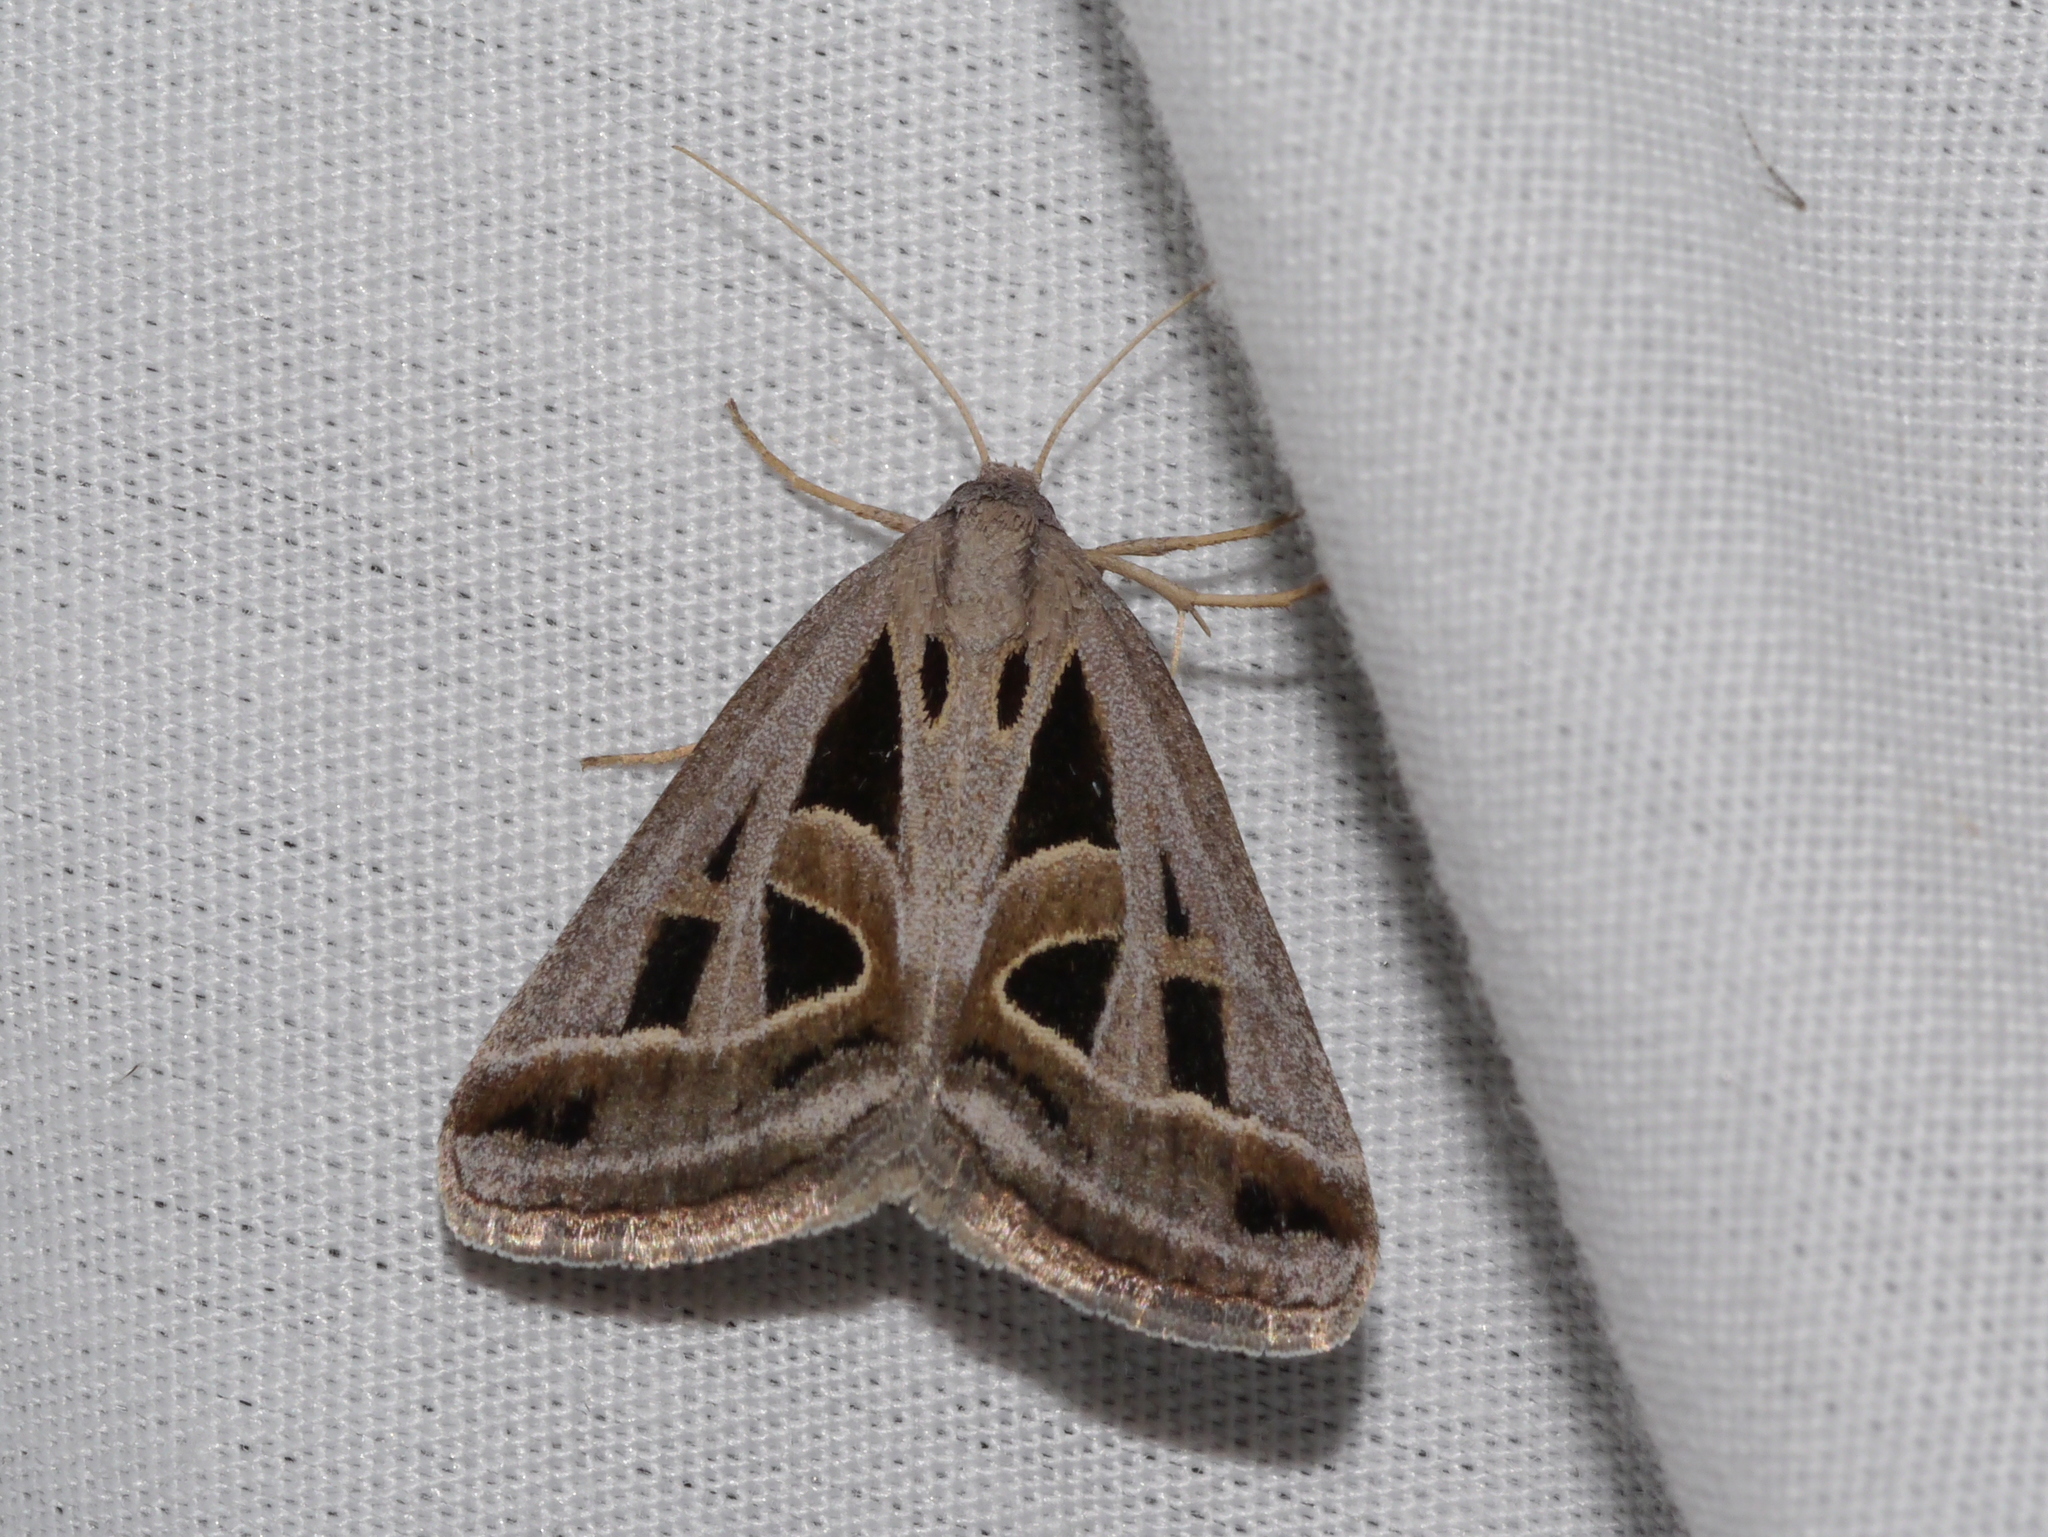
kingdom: Animalia
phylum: Arthropoda
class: Insecta
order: Lepidoptera
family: Erebidae
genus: Callistege
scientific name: Callistege diagonalis
